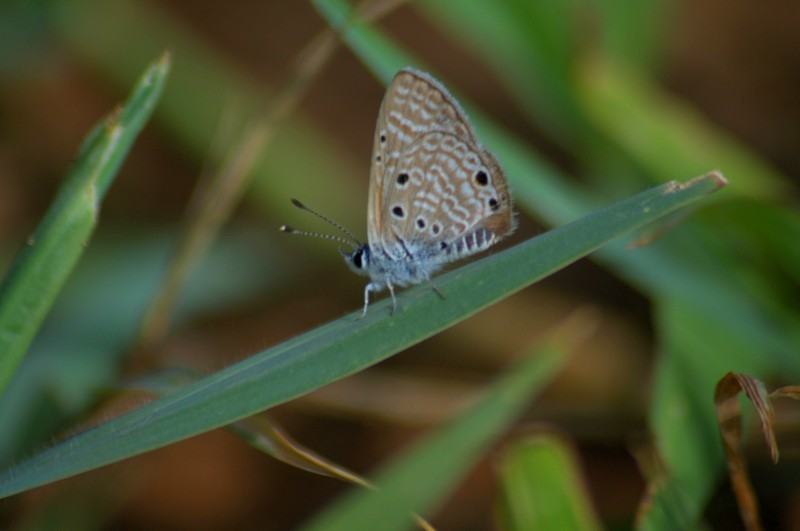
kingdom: Animalia
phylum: Arthropoda
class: Insecta
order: Lepidoptera
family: Lycaenidae
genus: Azanus
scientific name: Azanus ubaldus
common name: Desert babul blue
